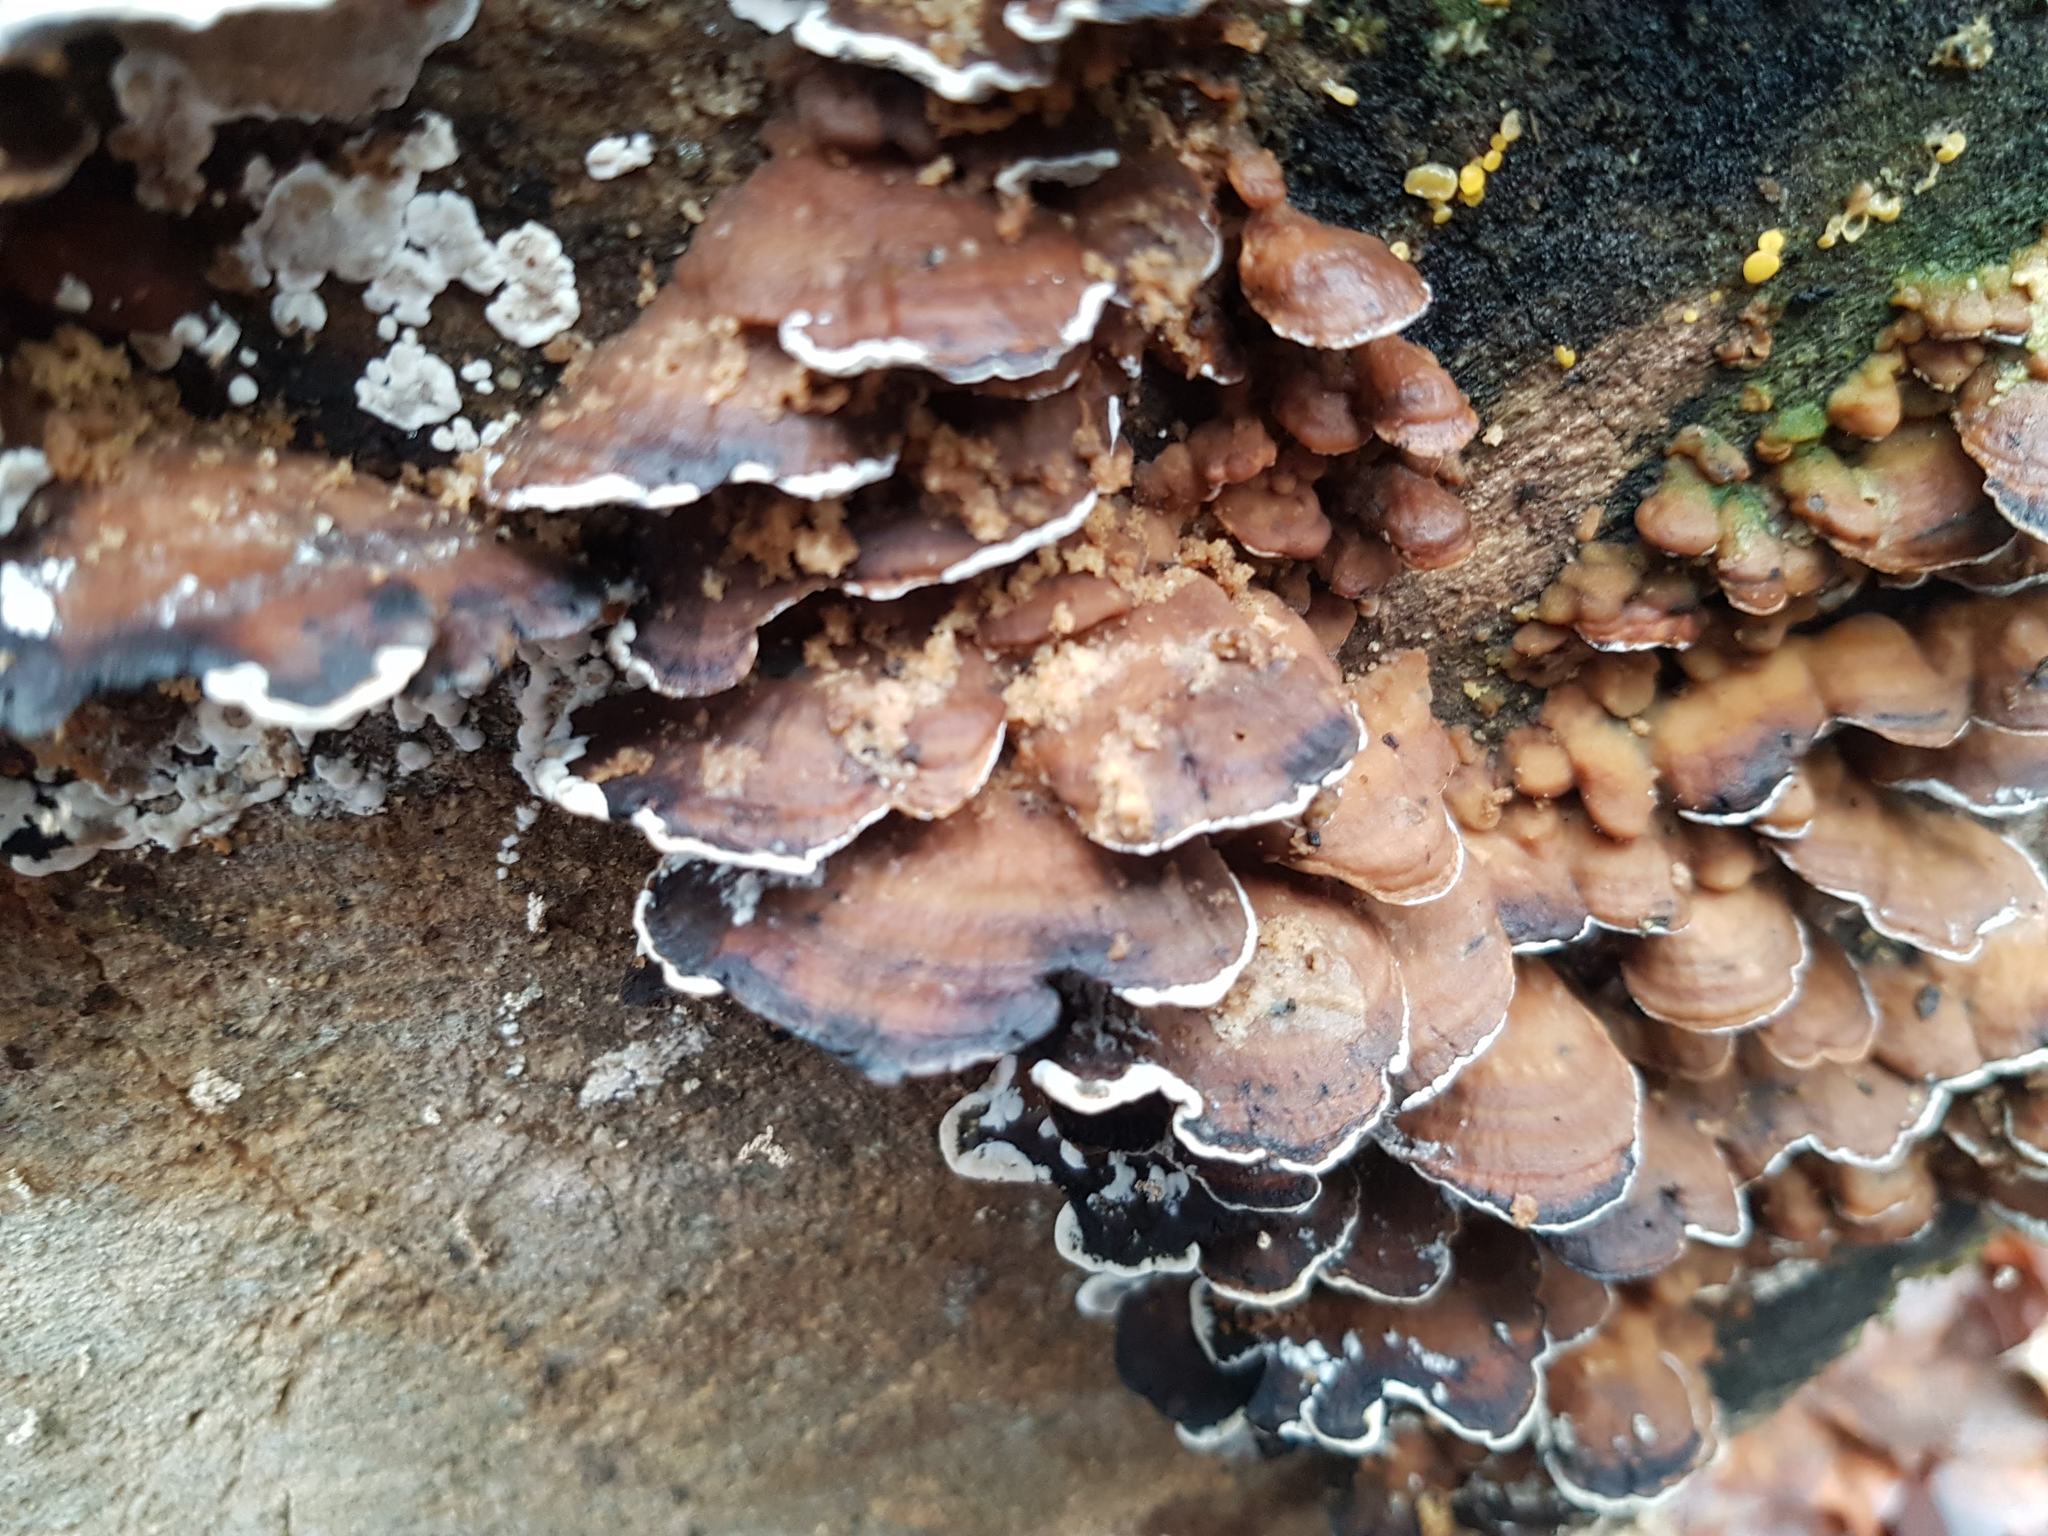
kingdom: Fungi
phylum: Basidiomycota
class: Agaricomycetes
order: Polyporales
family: Phanerochaetaceae
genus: Bjerkandera
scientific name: Bjerkandera adusta
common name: Smoky bracket
